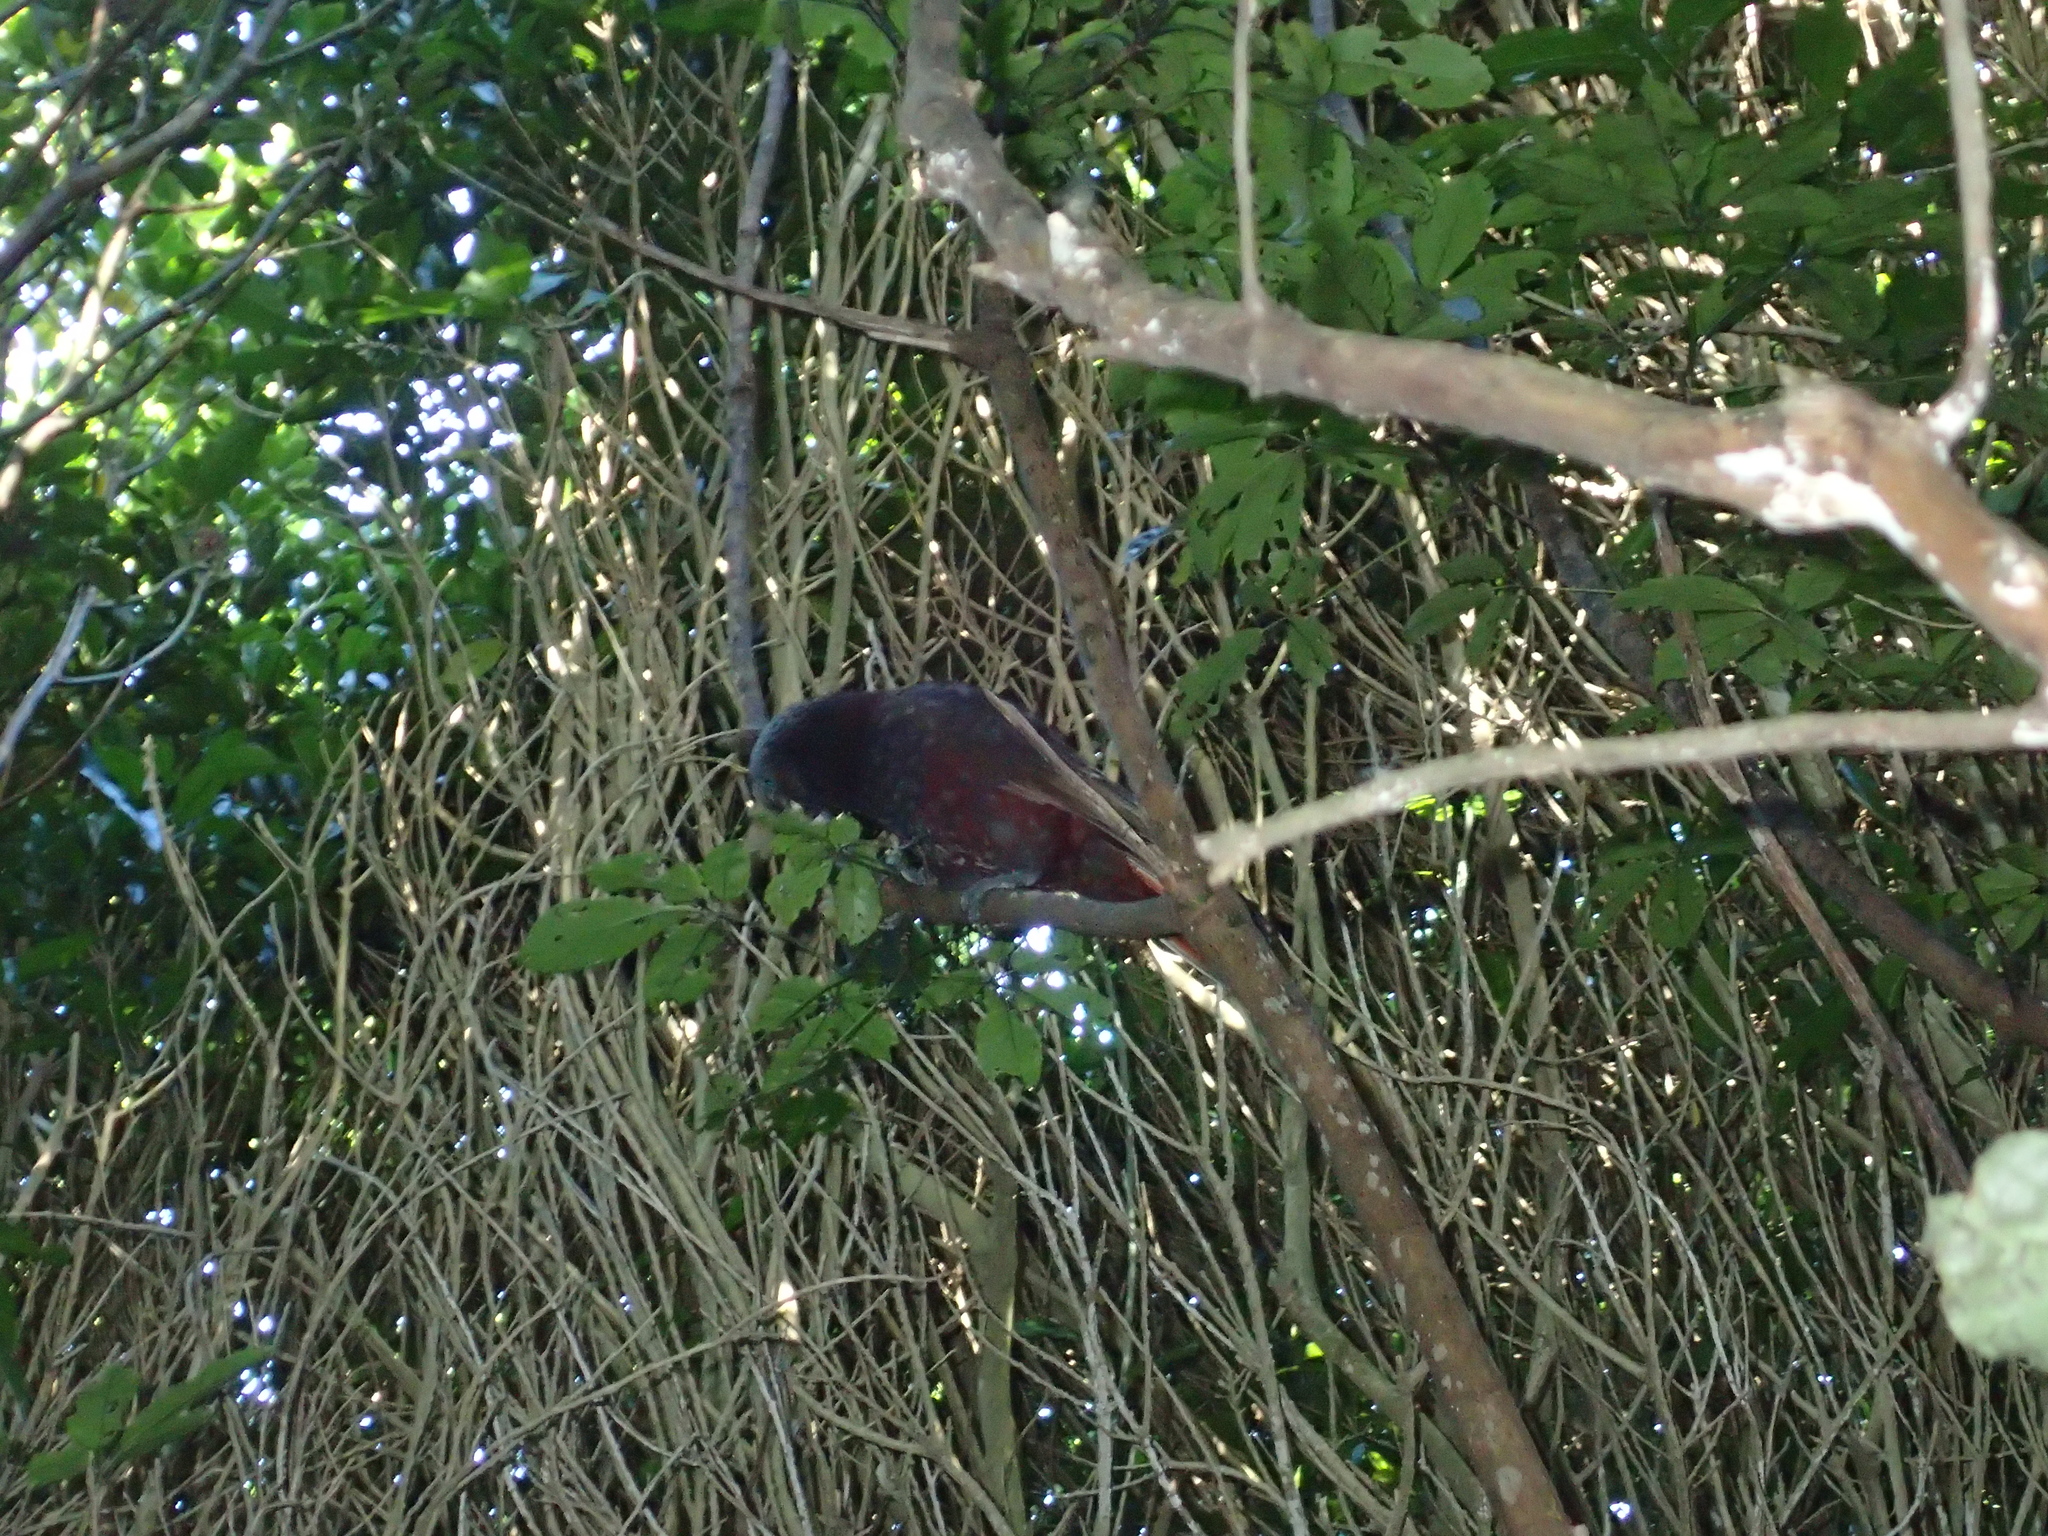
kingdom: Animalia
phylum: Chordata
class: Aves
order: Psittaciformes
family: Psittacidae
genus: Nestor
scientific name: Nestor meridionalis
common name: New zealand kaka
